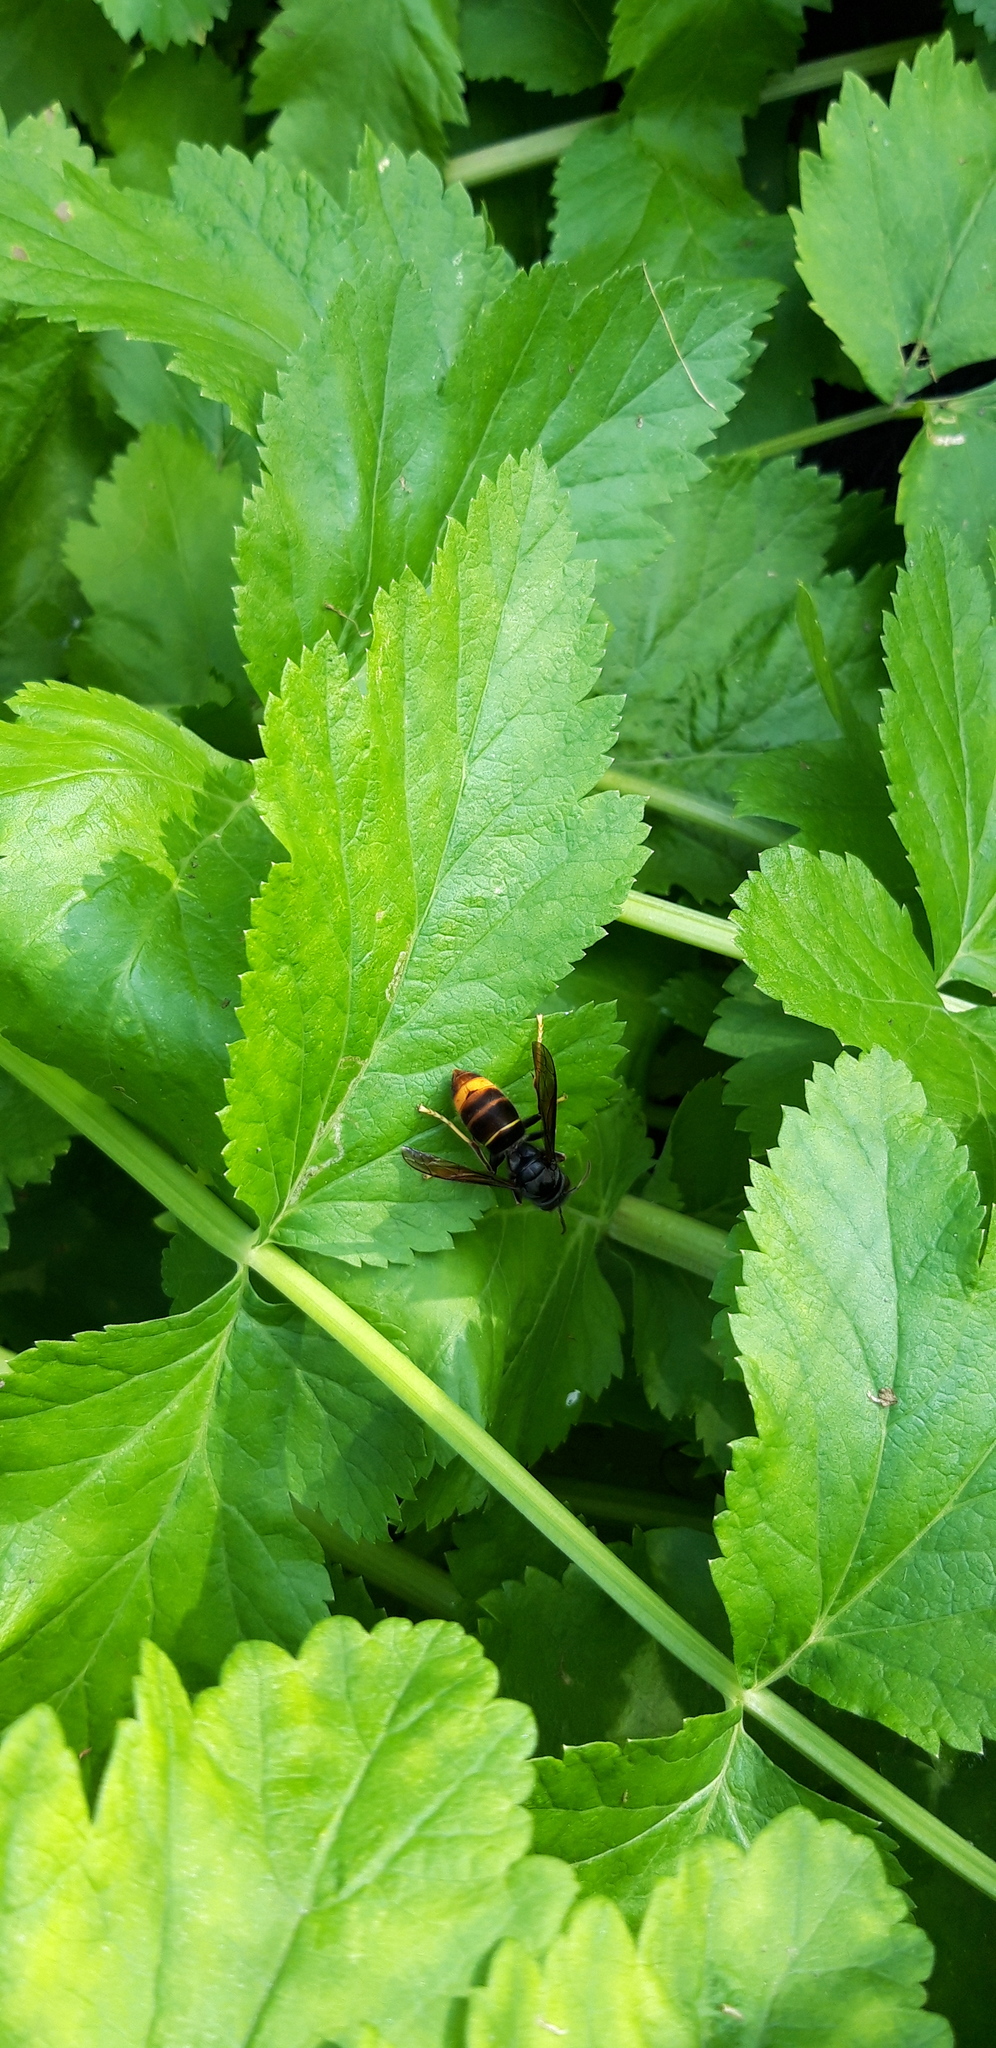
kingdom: Animalia
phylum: Arthropoda
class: Insecta
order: Hymenoptera
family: Vespidae
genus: Vespa
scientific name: Vespa velutina
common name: Asian hornet
